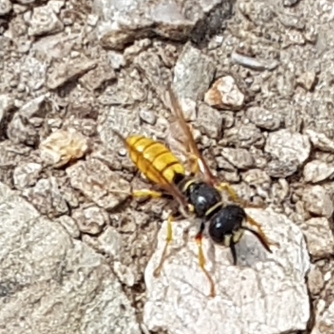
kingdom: Animalia
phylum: Arthropoda
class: Insecta
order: Hymenoptera
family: Crabronidae
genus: Philanthus
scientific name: Philanthus triangulum
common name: Bee wolf
